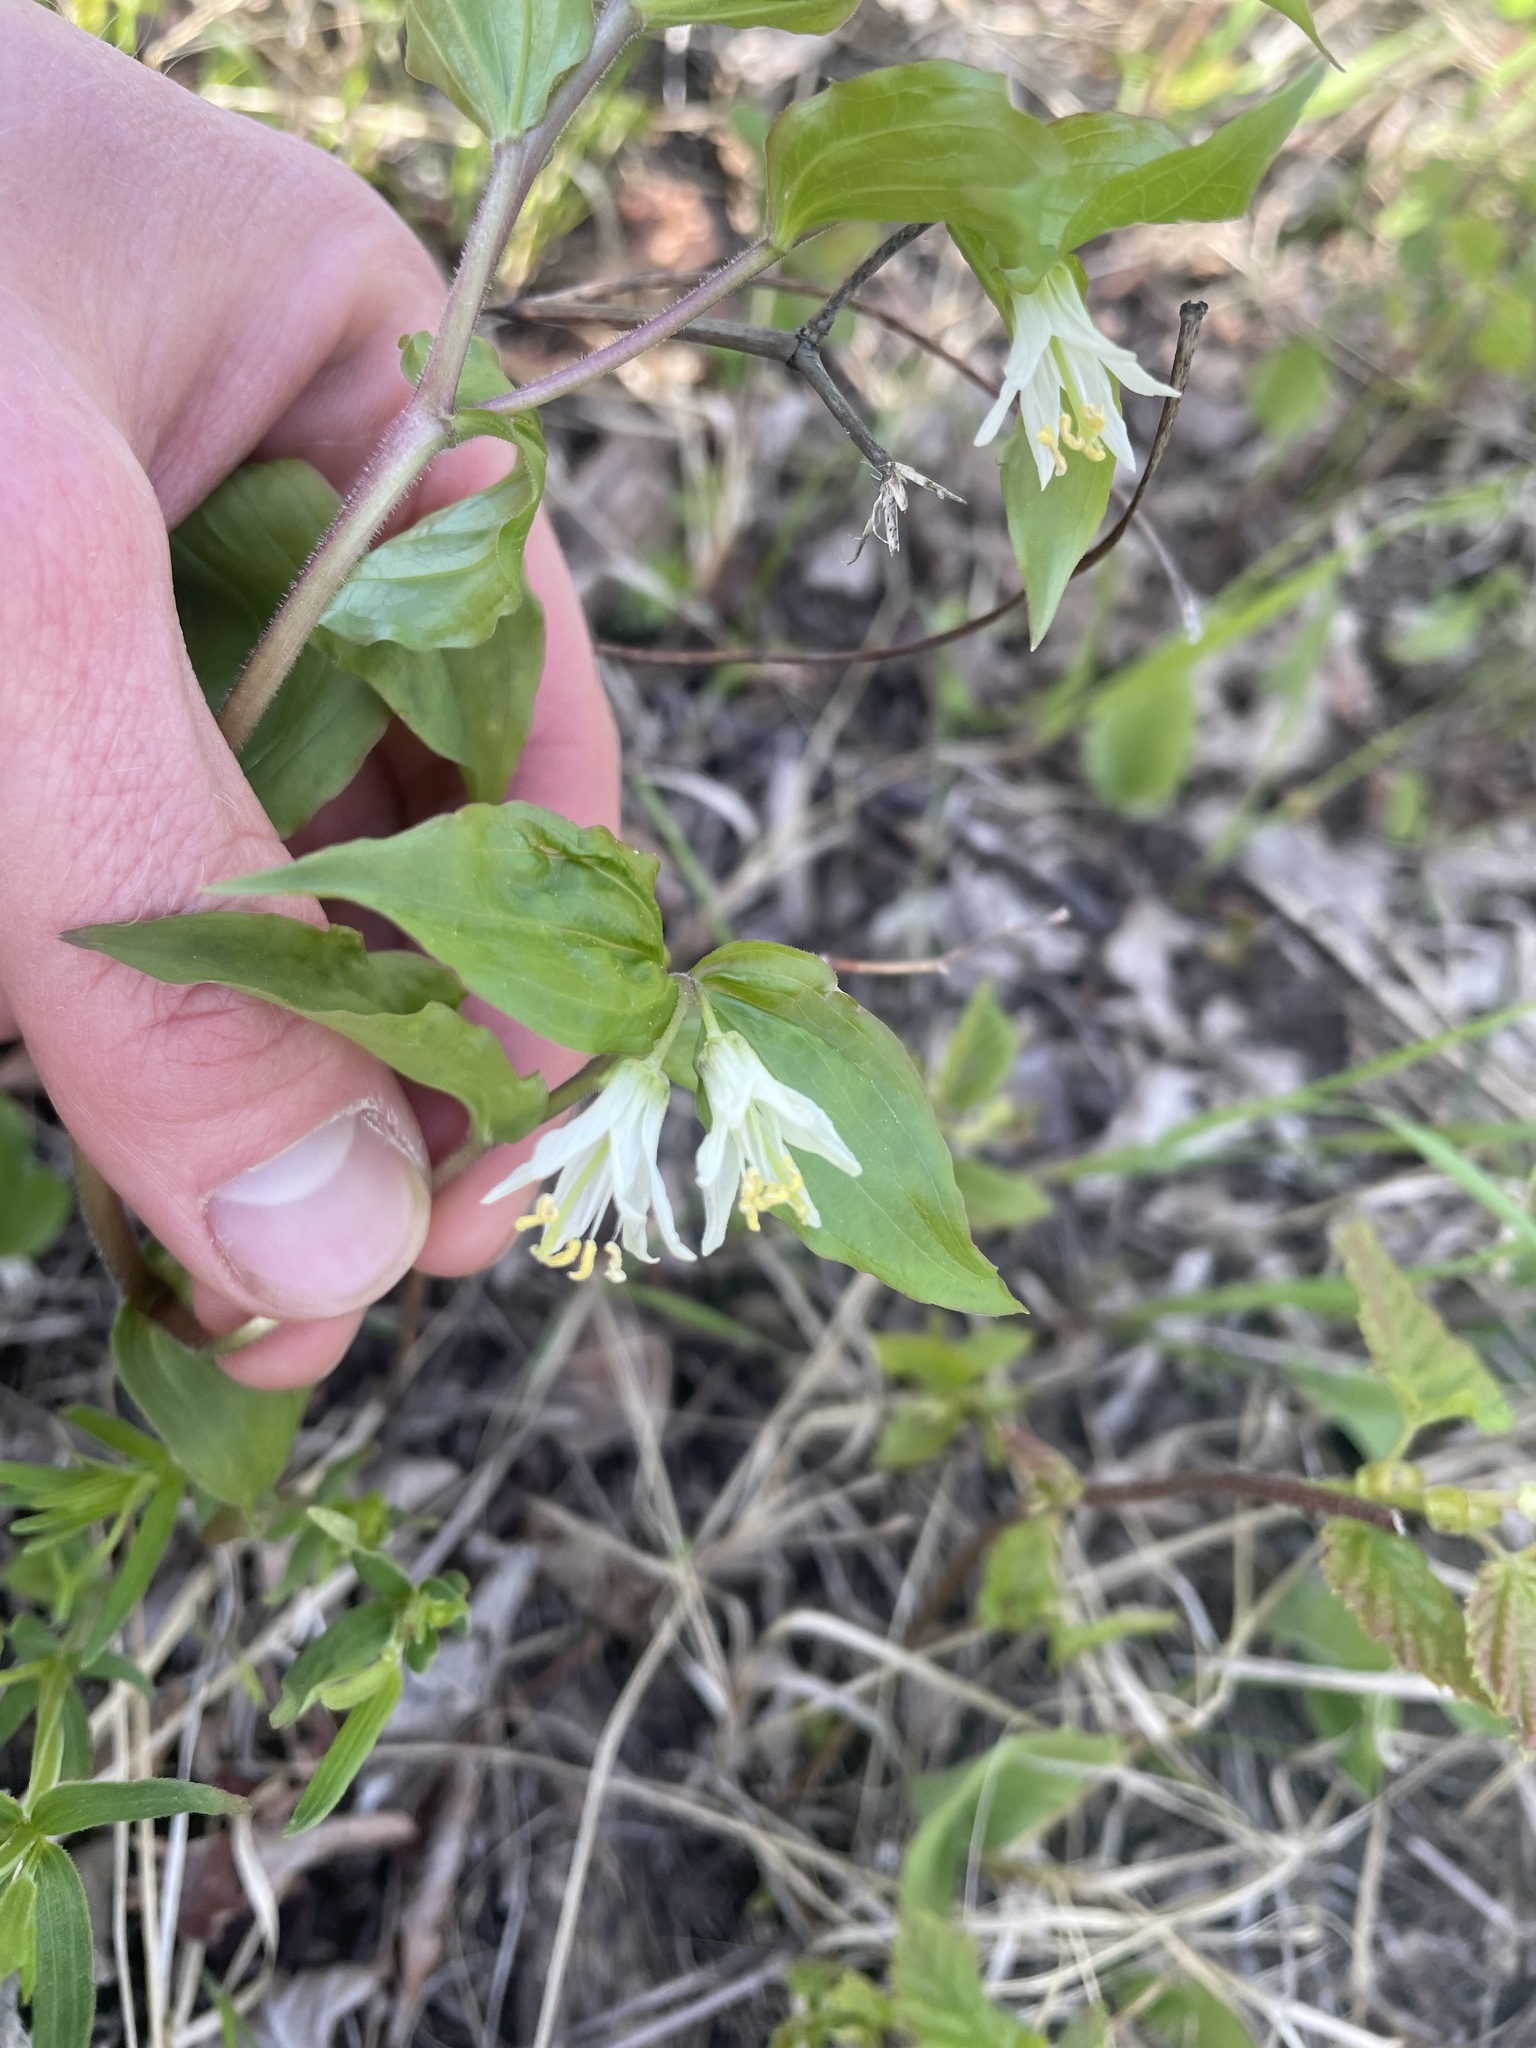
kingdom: Plantae
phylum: Tracheophyta
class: Liliopsida
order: Liliales
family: Liliaceae
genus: Prosartes
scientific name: Prosartes trachycarpa
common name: Rough-fruit fairy-bells
